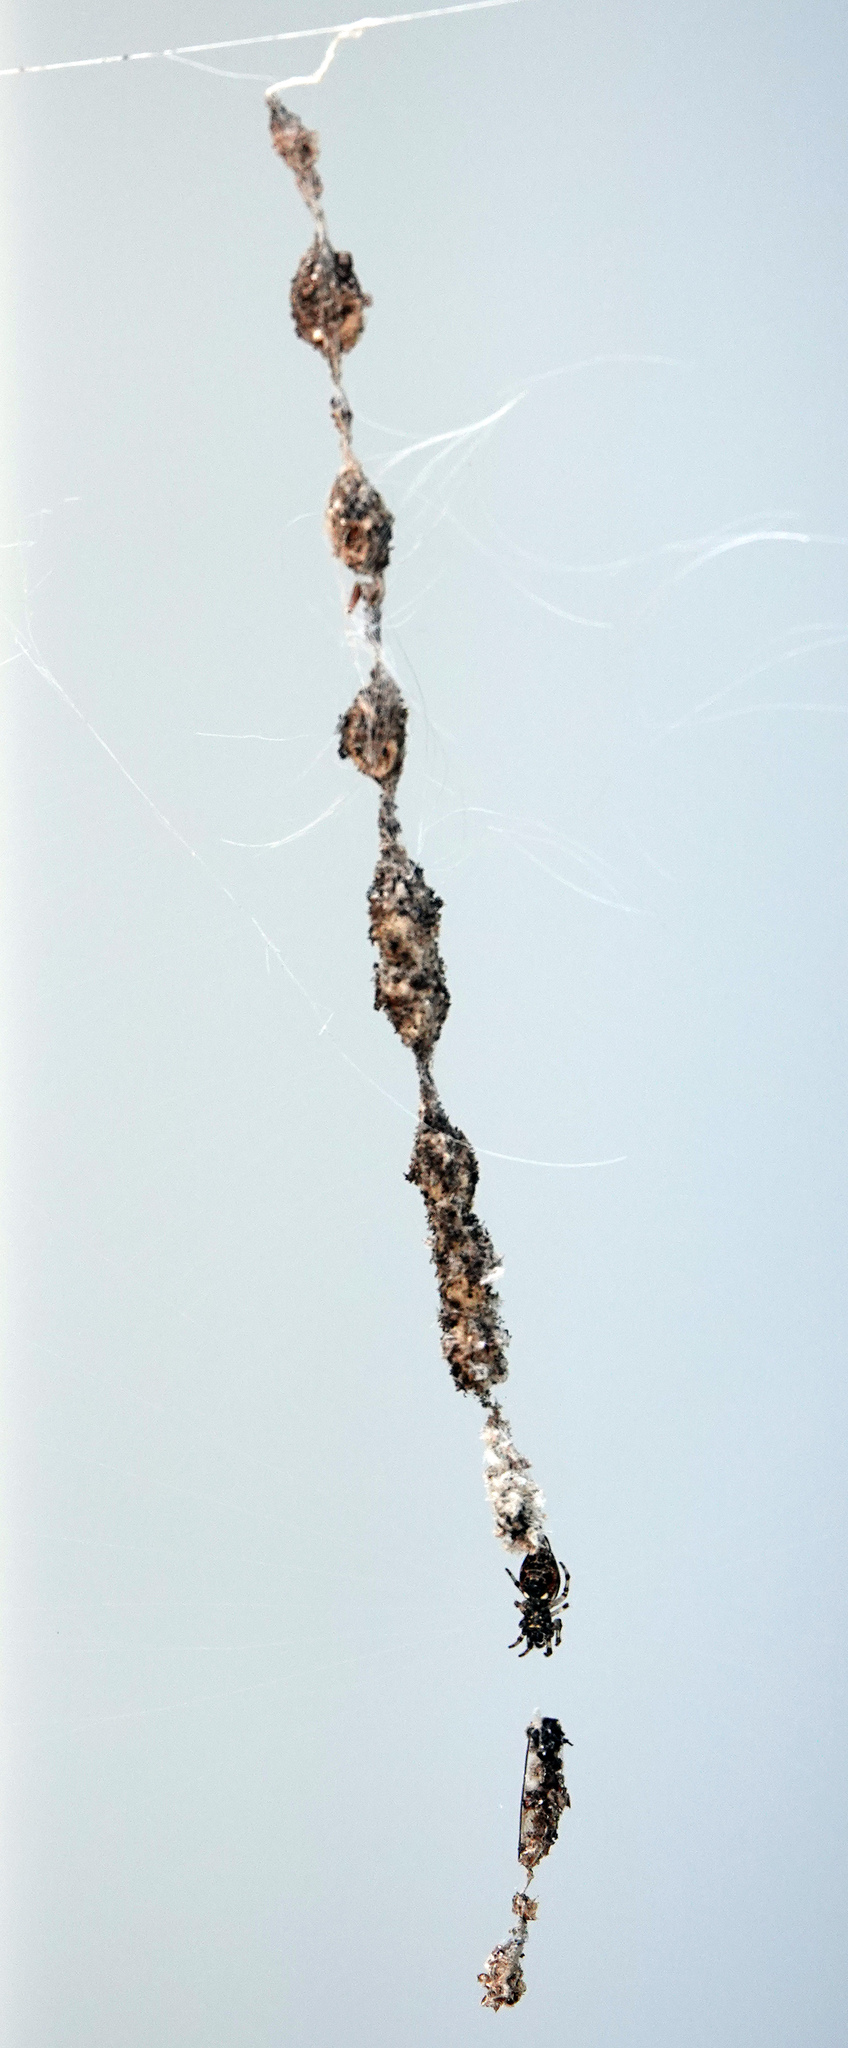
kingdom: Animalia
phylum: Arthropoda
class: Arachnida
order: Araneae
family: Araneidae
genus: Cyclosa
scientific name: Cyclosa turbinata
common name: Orb weavers
